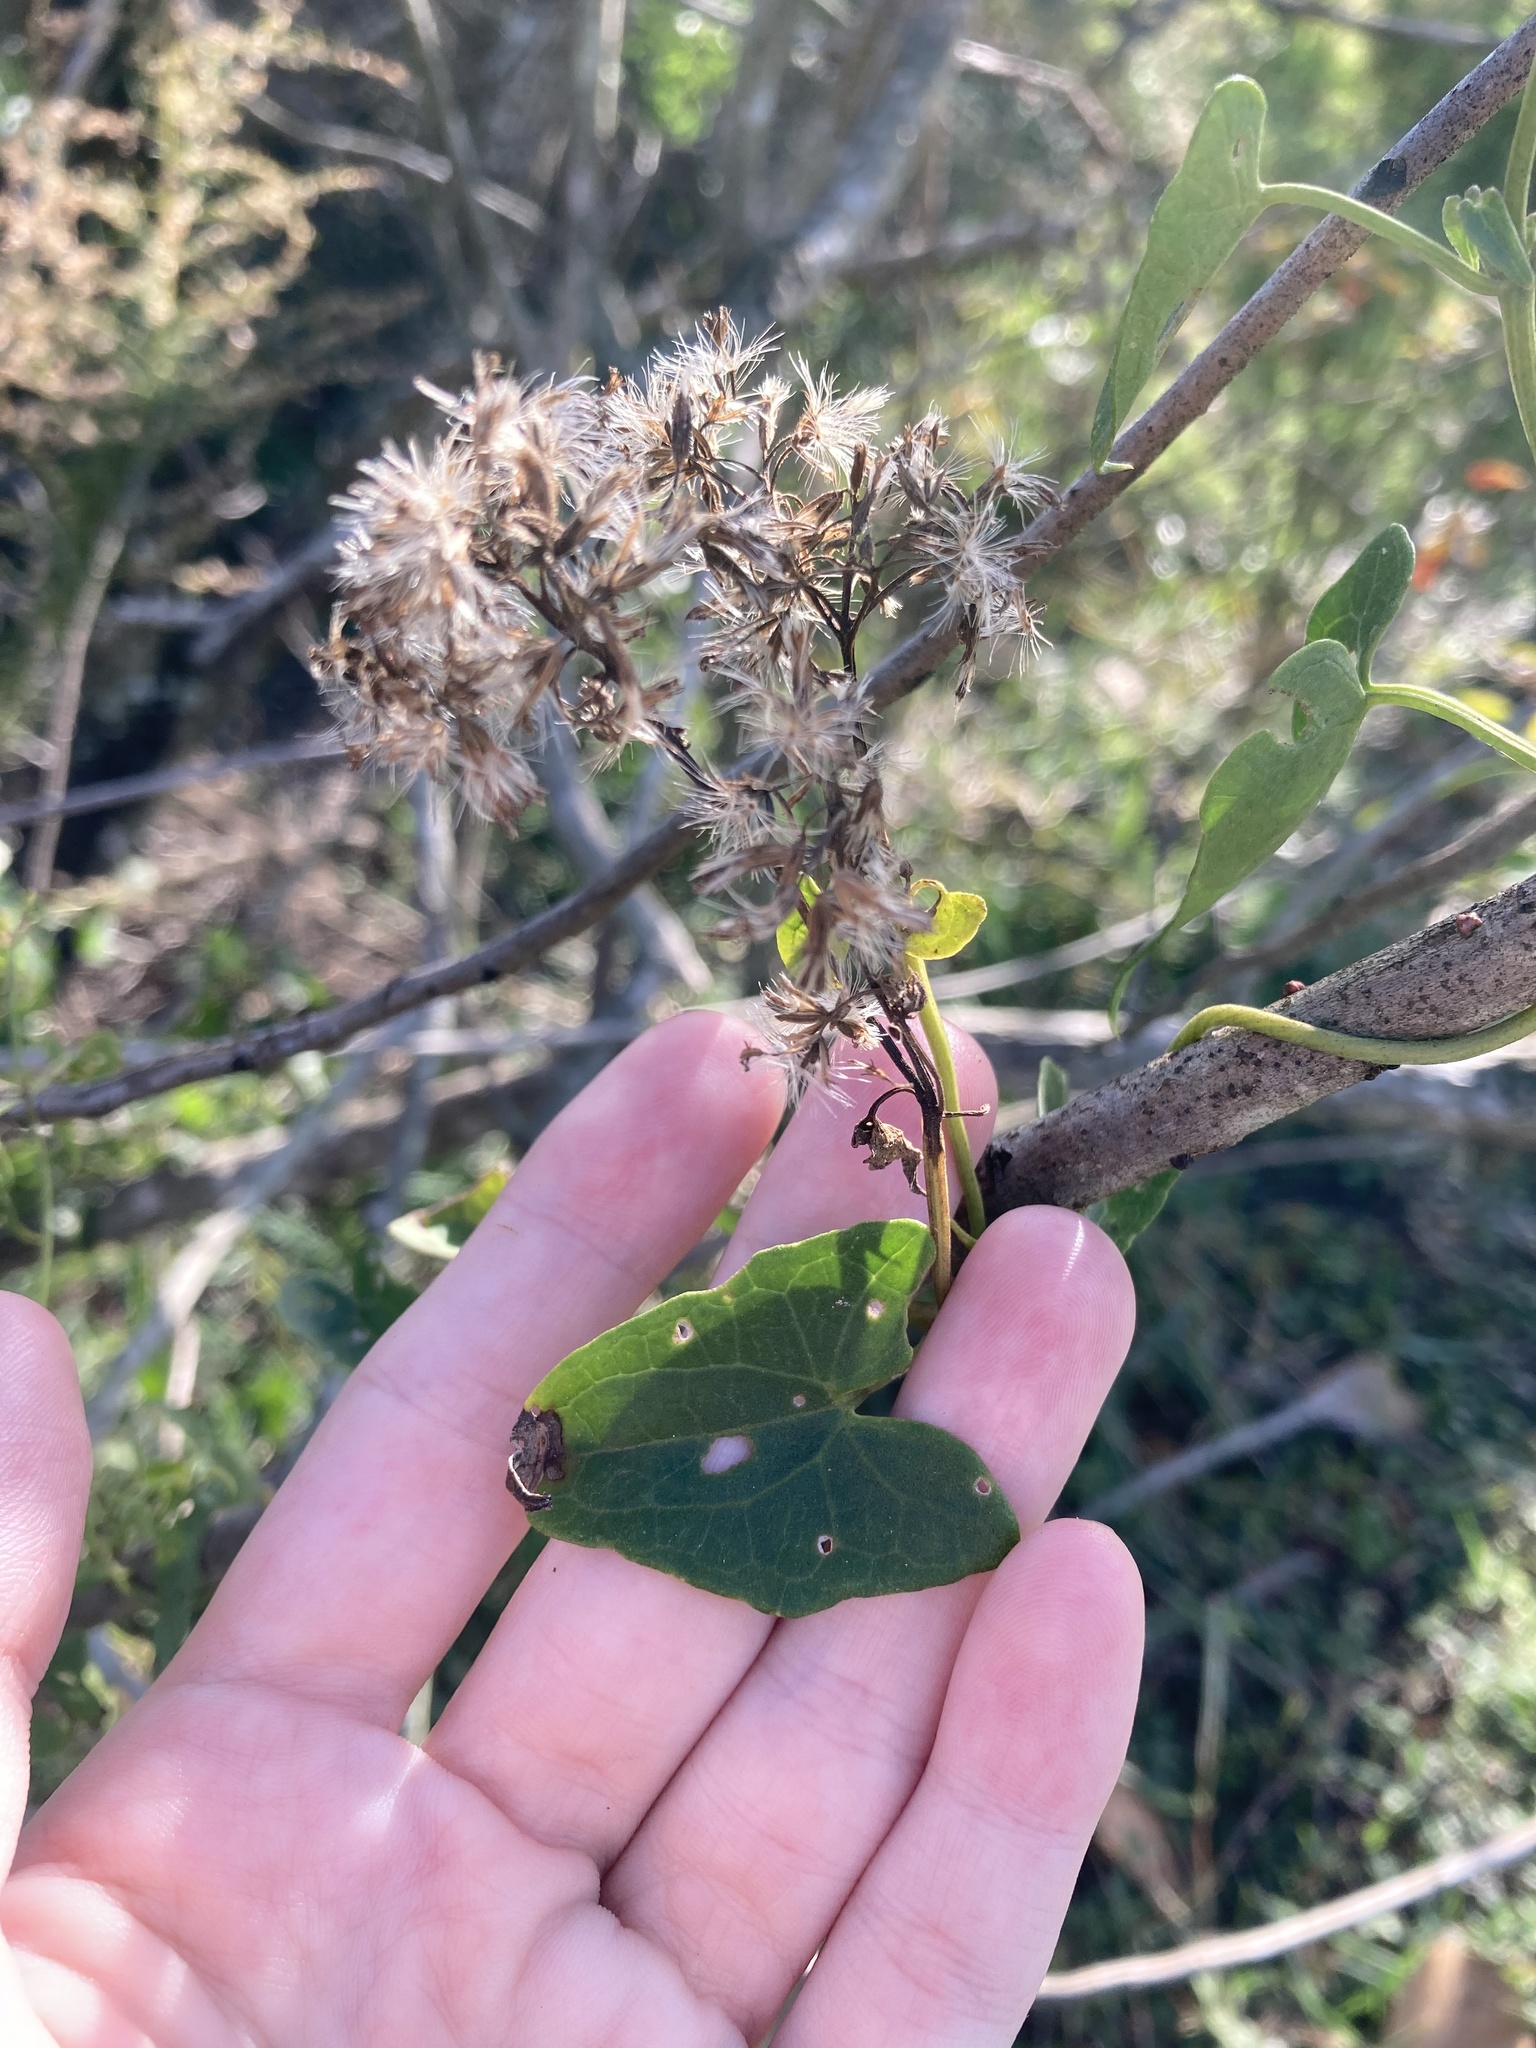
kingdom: Plantae
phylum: Tracheophyta
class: Magnoliopsida
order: Asterales
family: Asteraceae
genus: Mikania
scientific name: Mikania scandens
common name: Climbing hempvine
